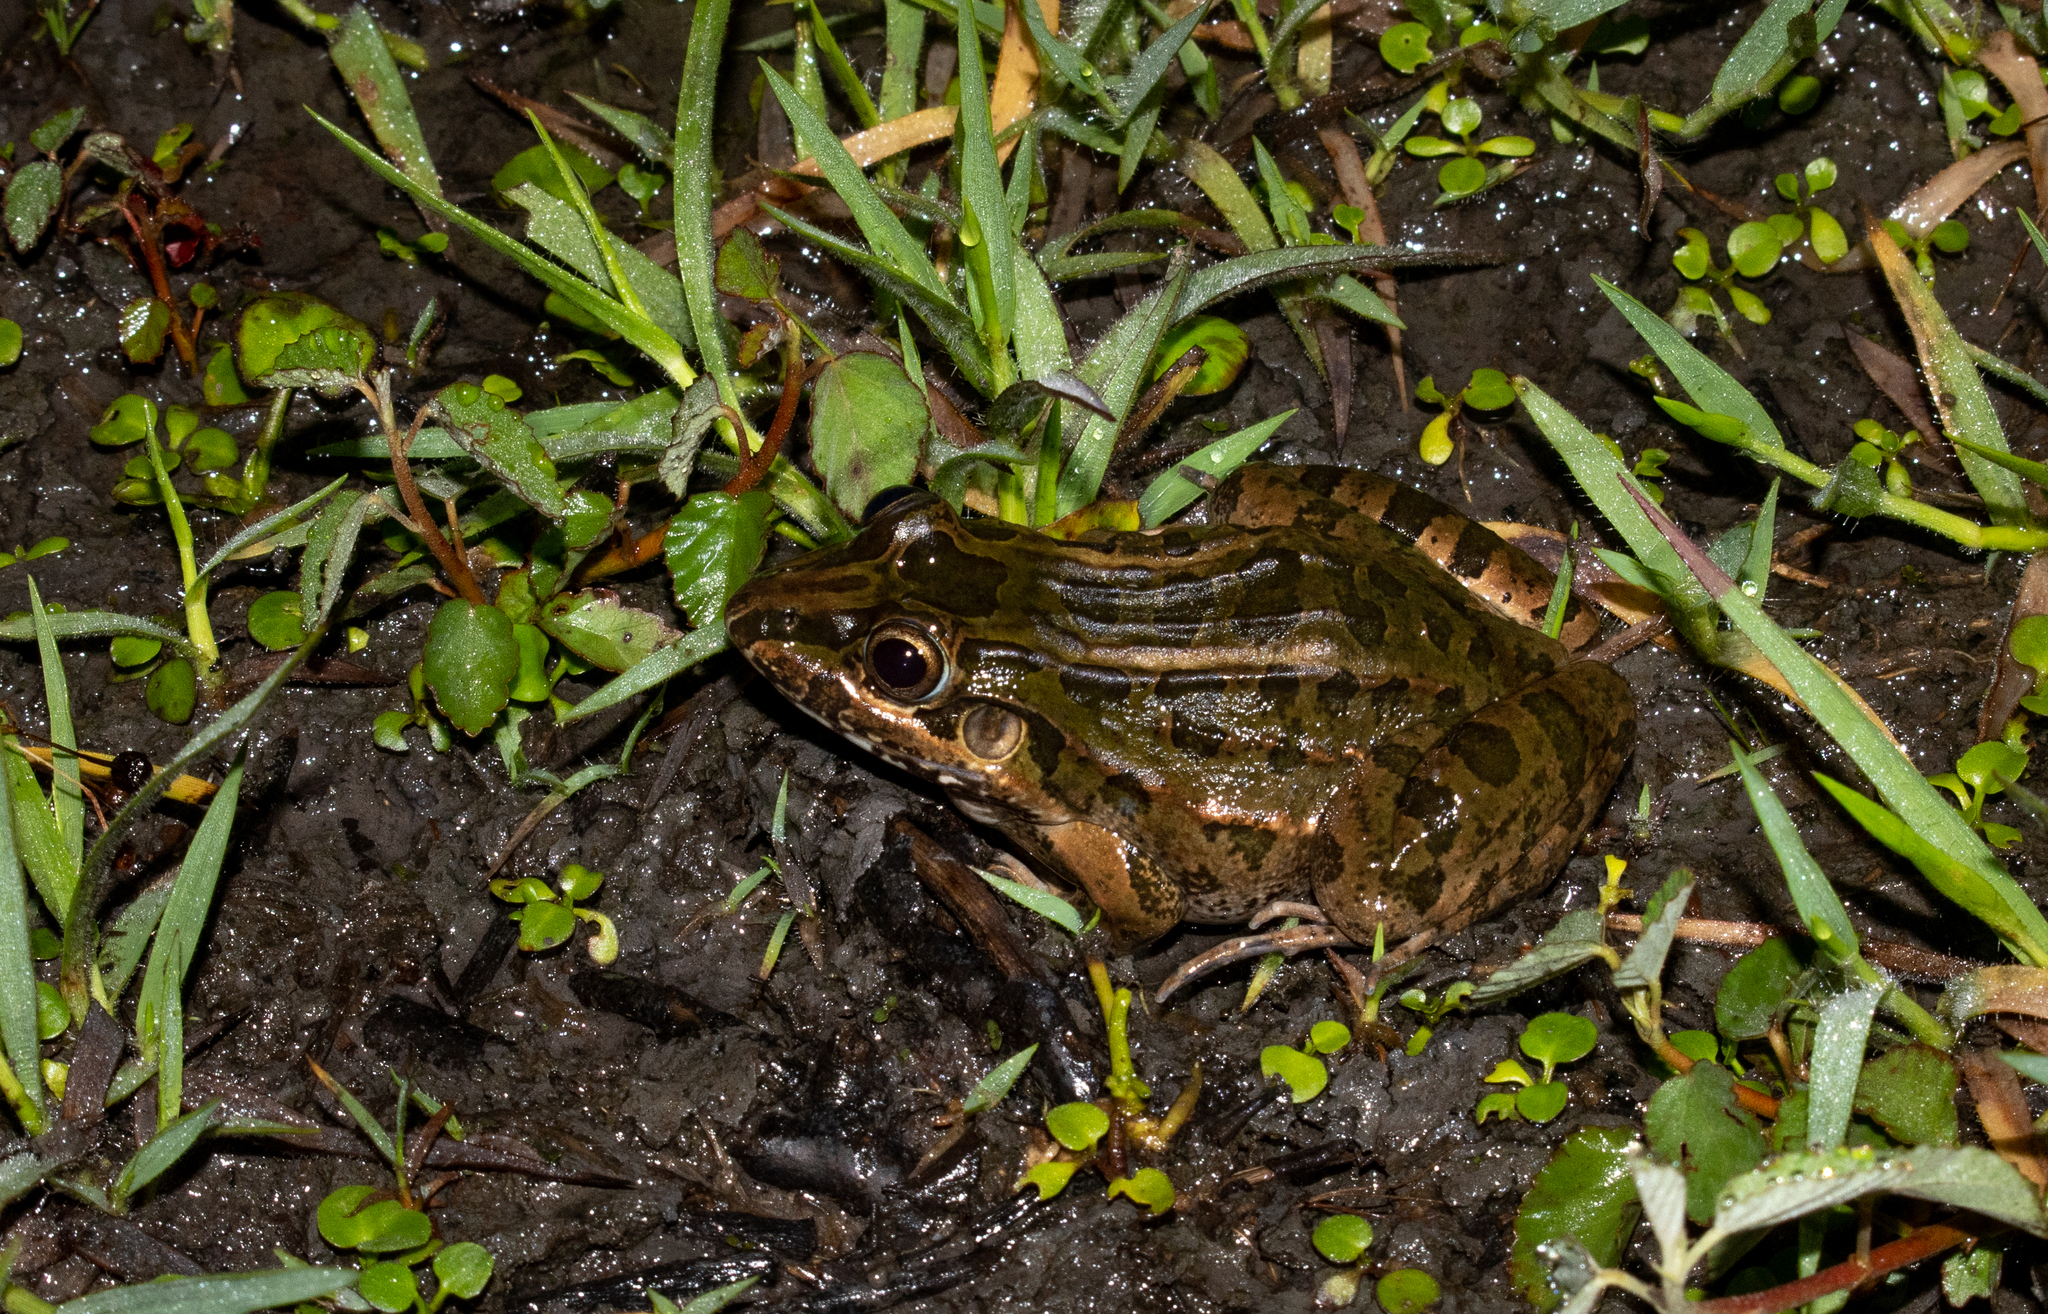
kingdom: Animalia
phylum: Chordata
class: Amphibia
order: Anura
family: Leptodactylidae
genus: Leptodactylus
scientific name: Leptodactylus macrosternum
